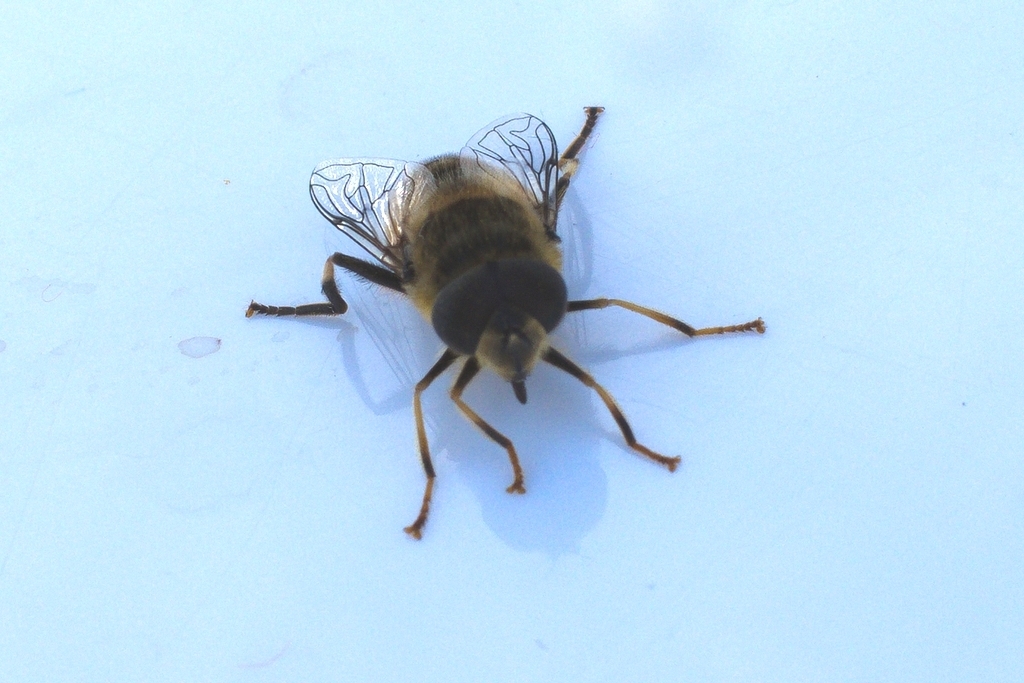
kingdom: Animalia
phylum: Arthropoda
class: Insecta
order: Diptera
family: Syrphidae
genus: Eristalis
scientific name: Eristalis pertinax
